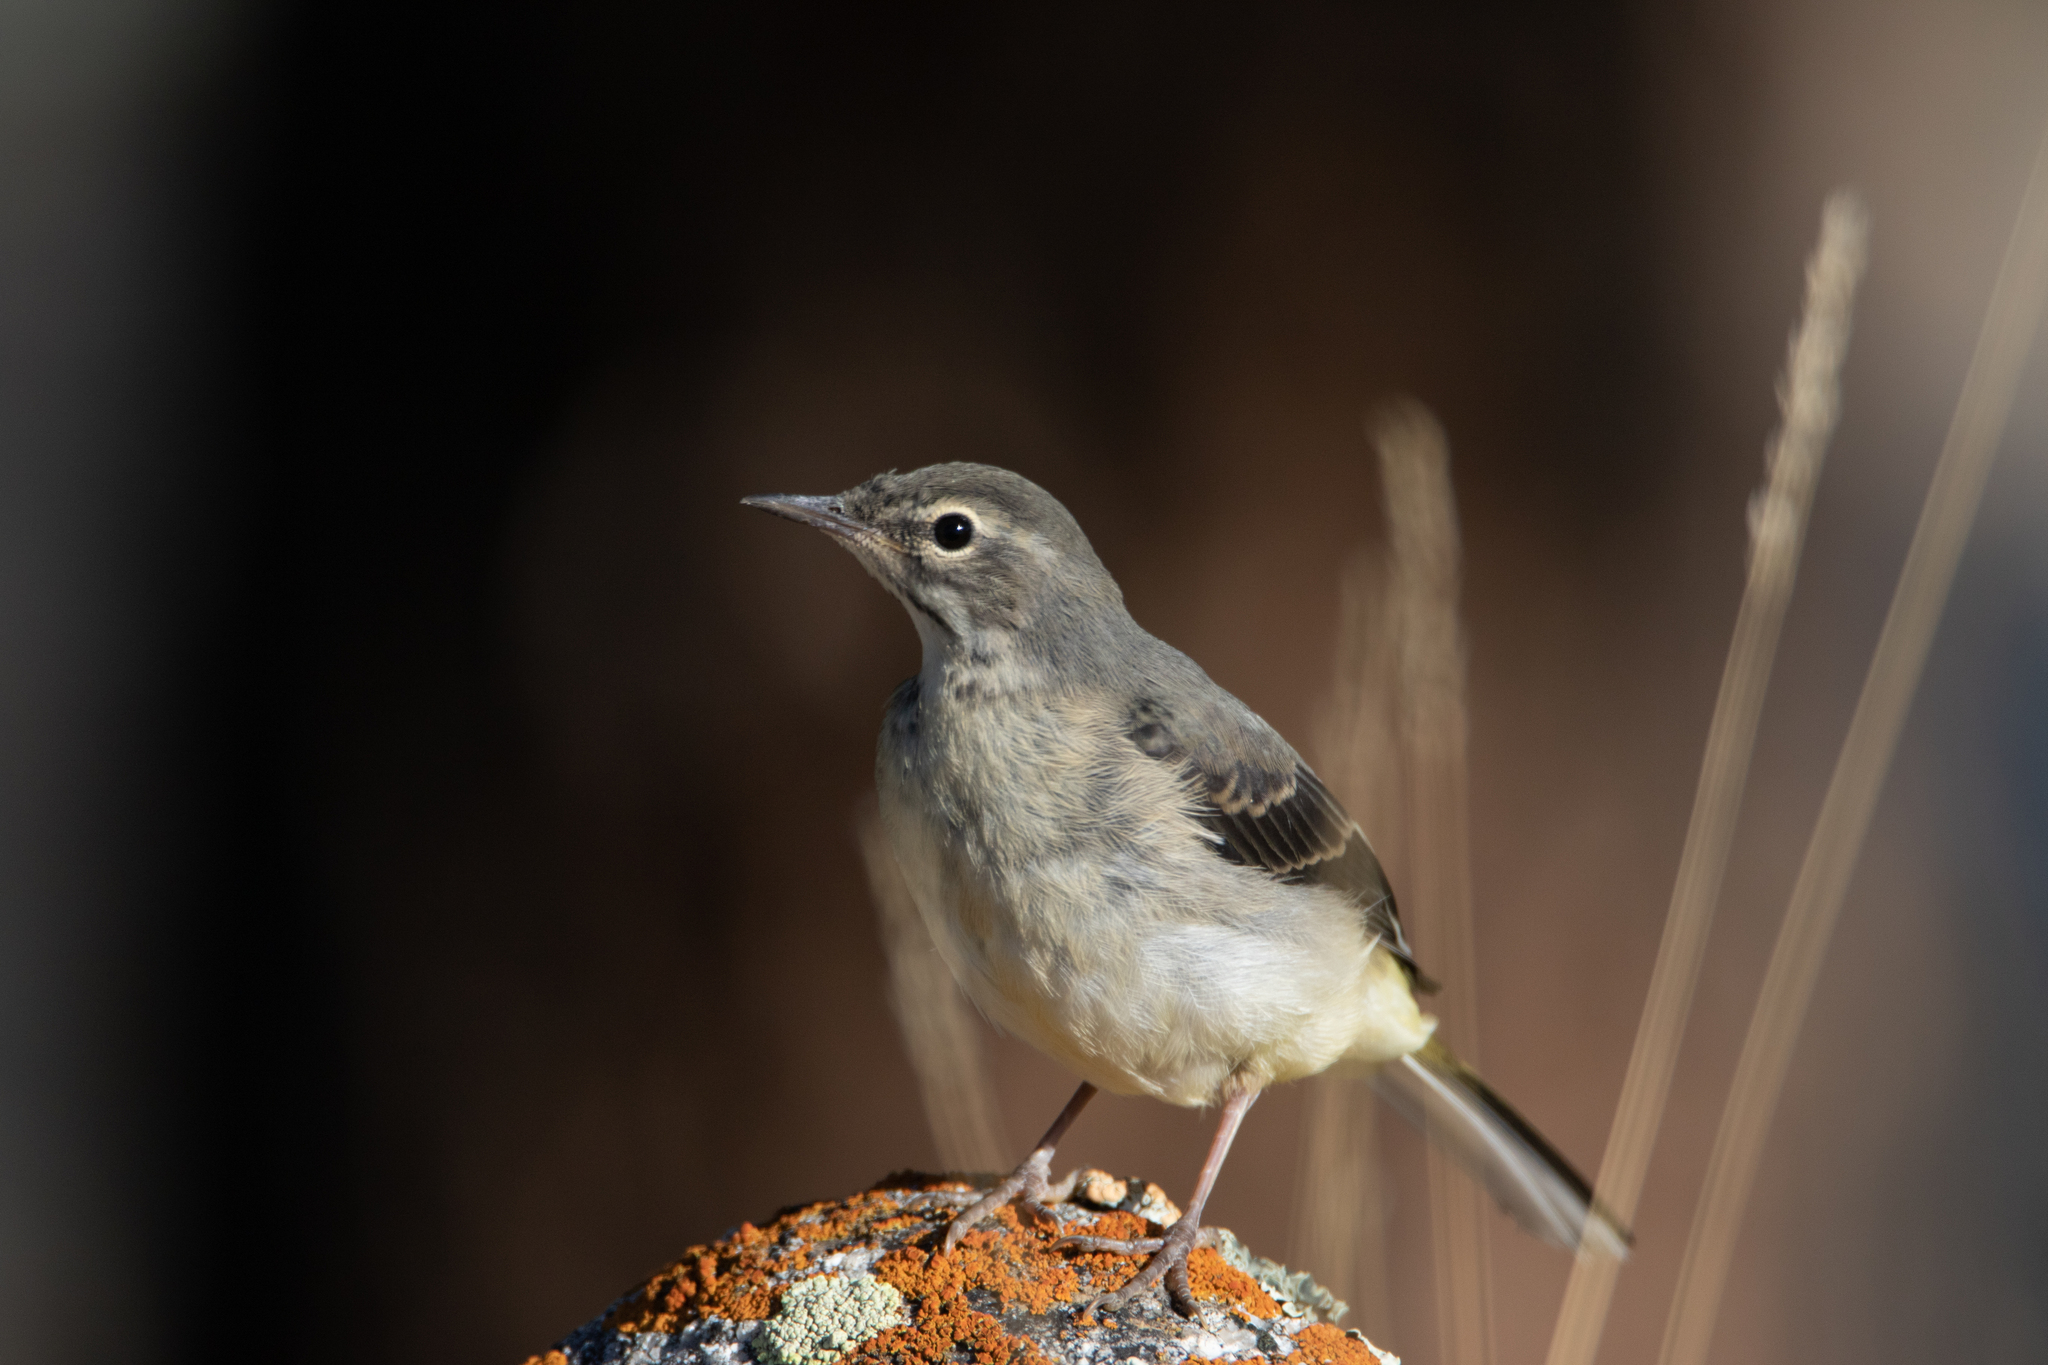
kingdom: Animalia
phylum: Chordata
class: Aves
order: Passeriformes
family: Motacillidae
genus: Motacilla
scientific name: Motacilla cinerea
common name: Grey wagtail
